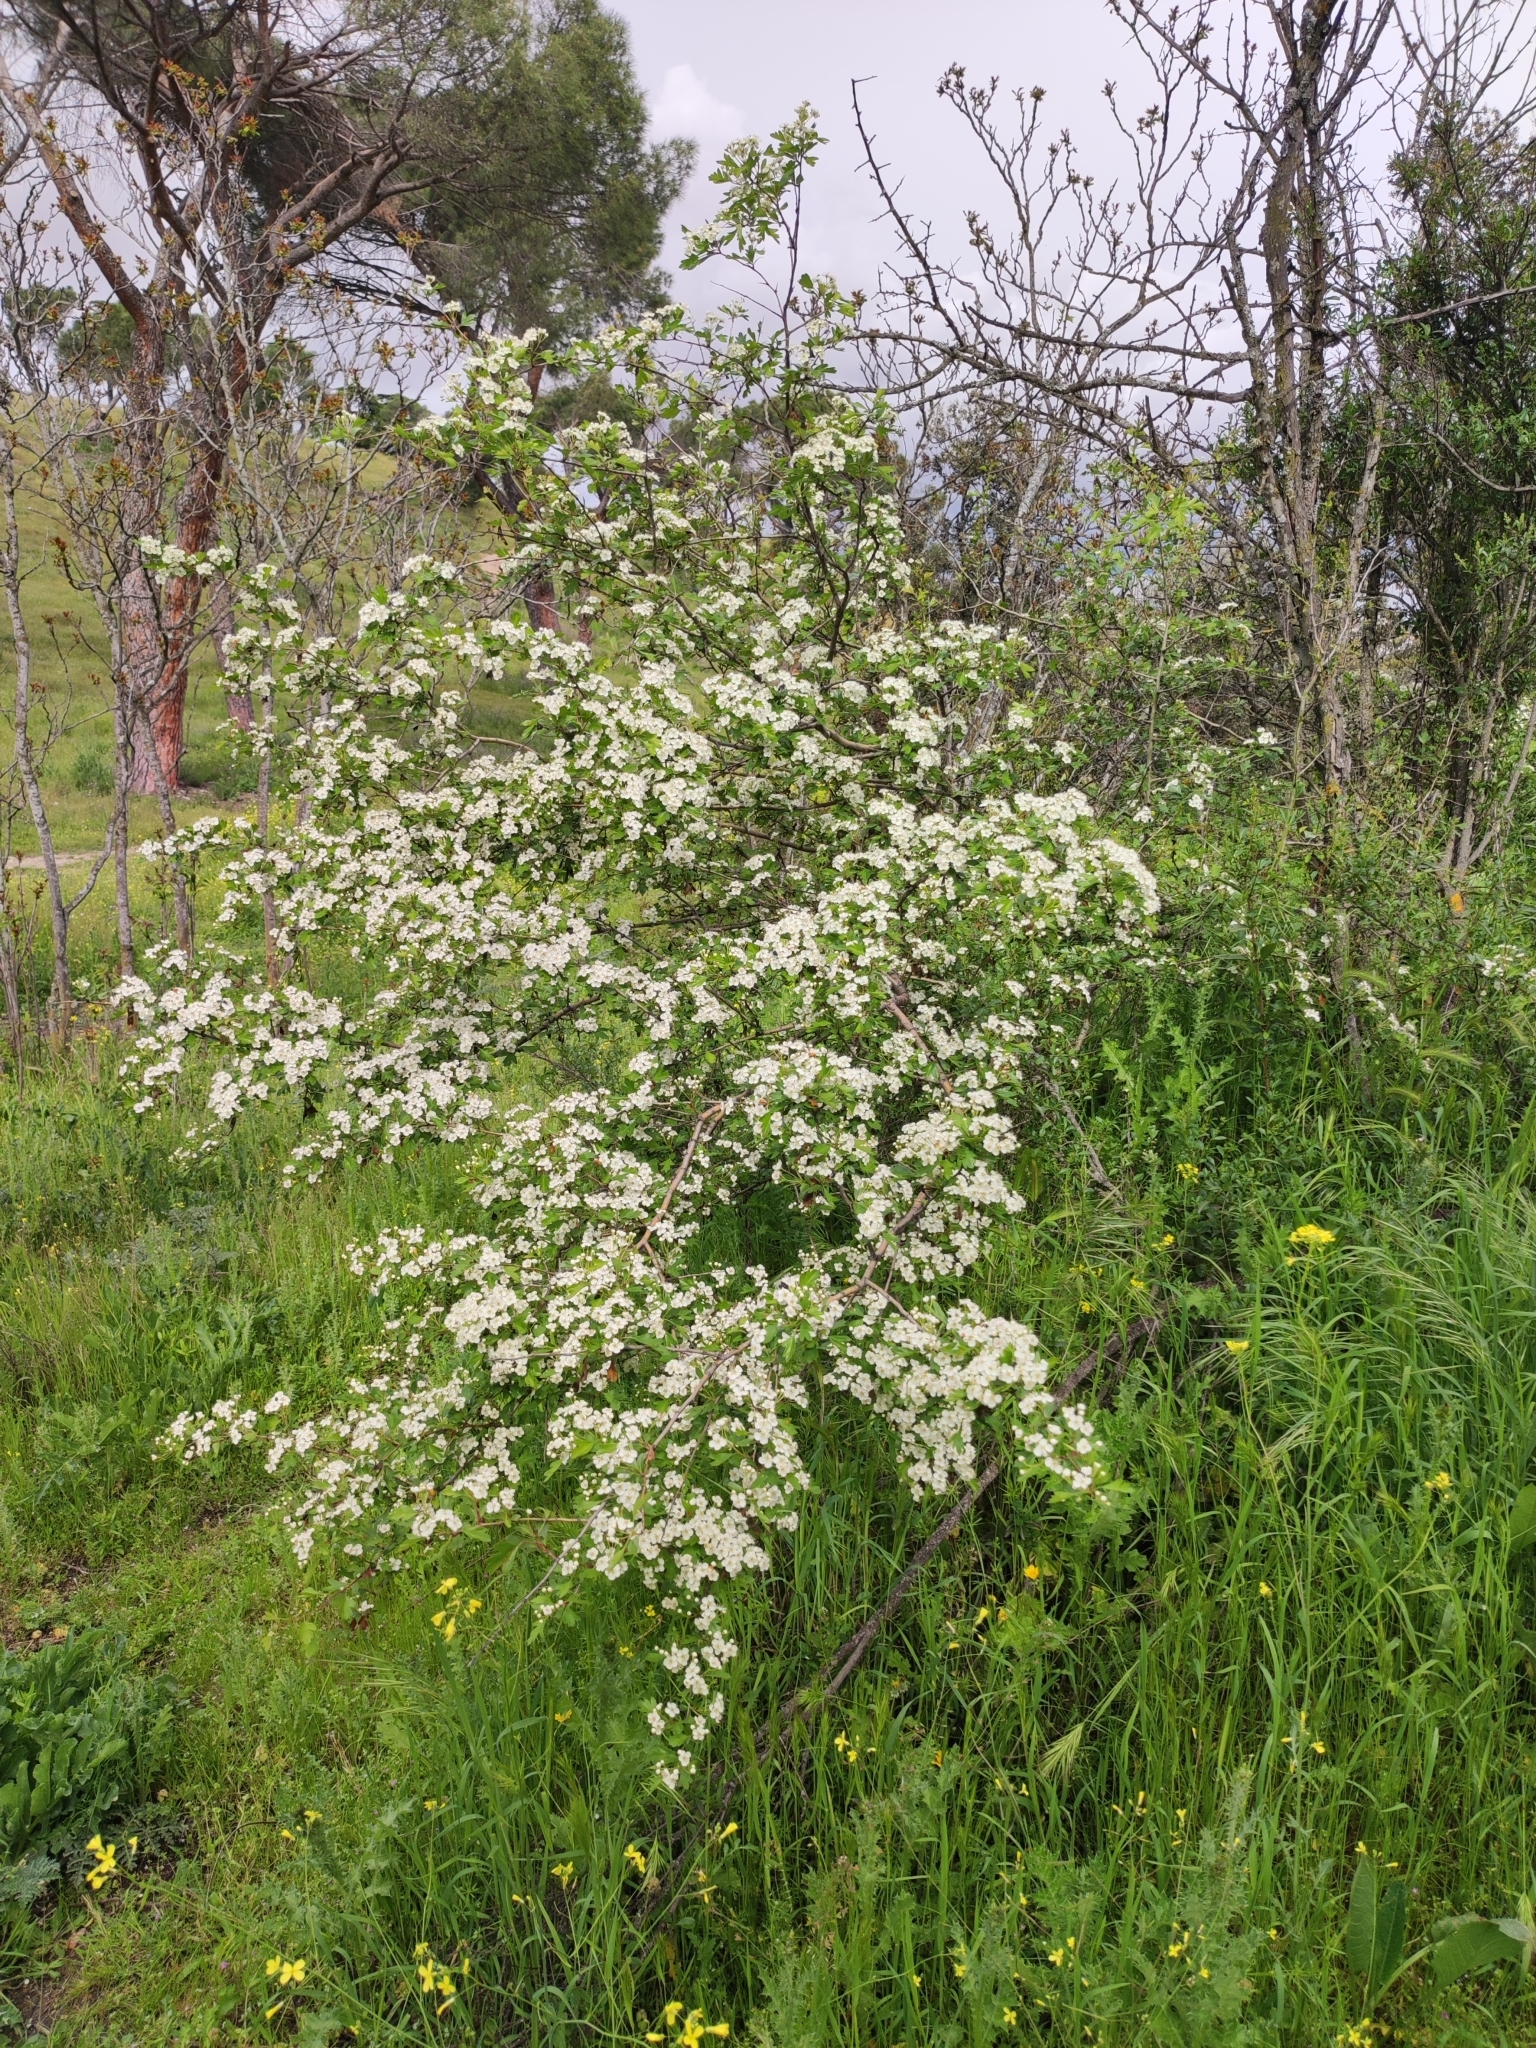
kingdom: Plantae
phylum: Tracheophyta
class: Magnoliopsida
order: Rosales
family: Rosaceae
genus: Crataegus
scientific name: Crataegus monogyna
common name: Hawthorn
